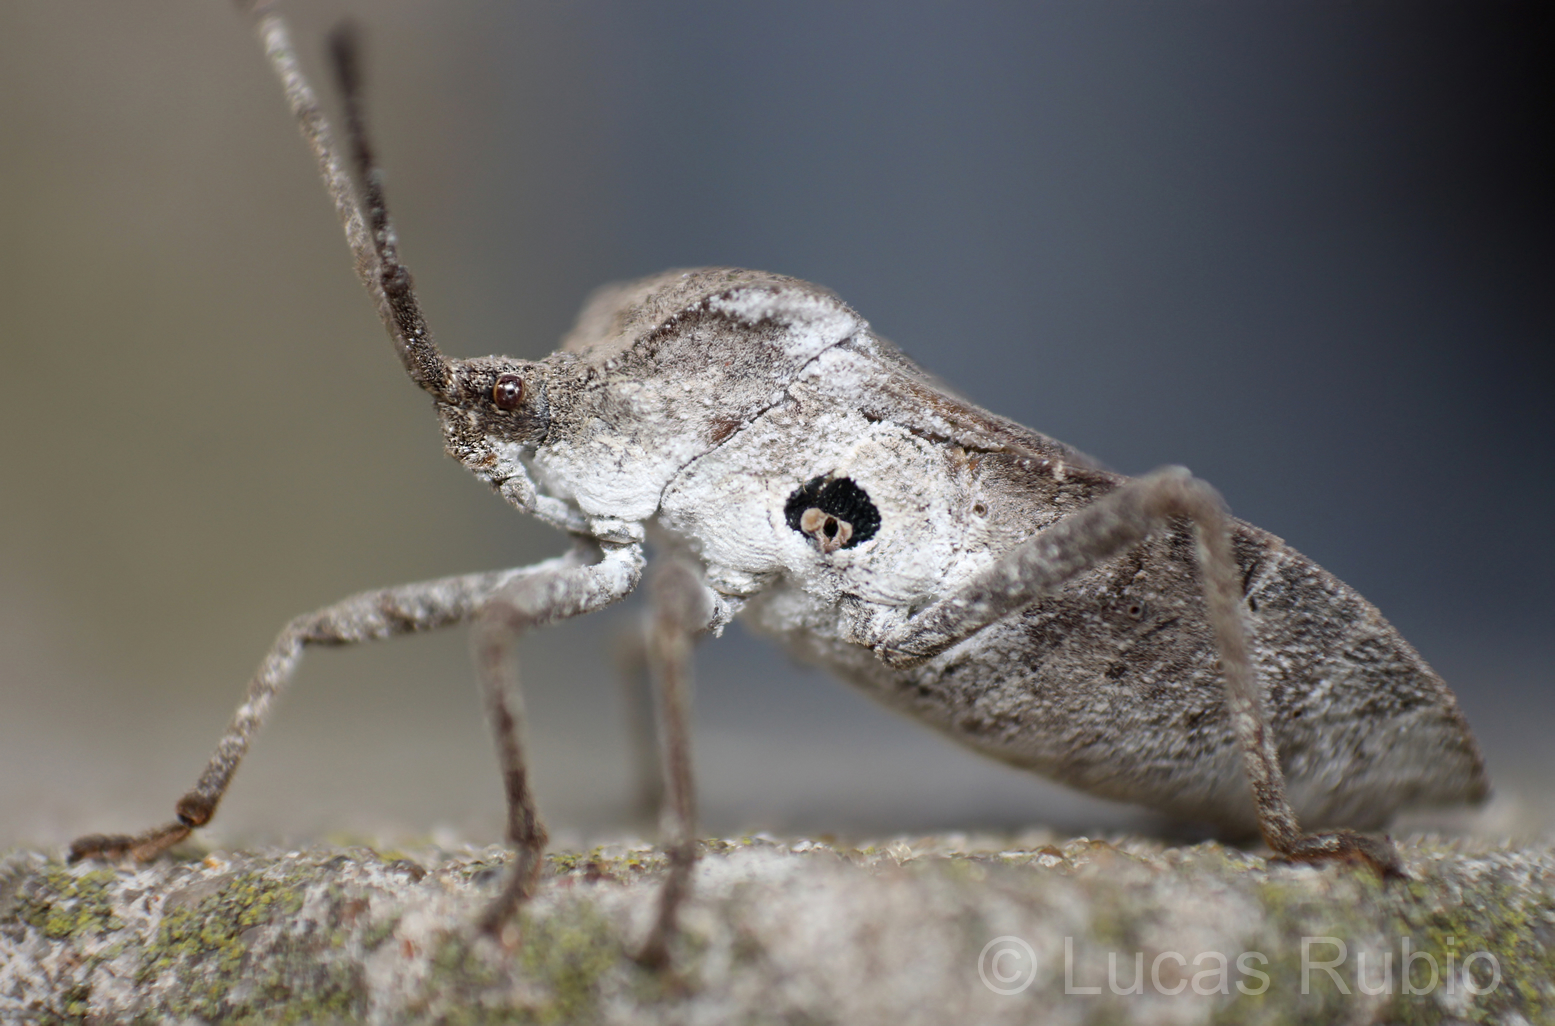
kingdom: Animalia
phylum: Arthropoda
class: Insecta
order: Hemiptera
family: Coreidae
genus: Spartocera
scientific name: Spartocera lativentris
